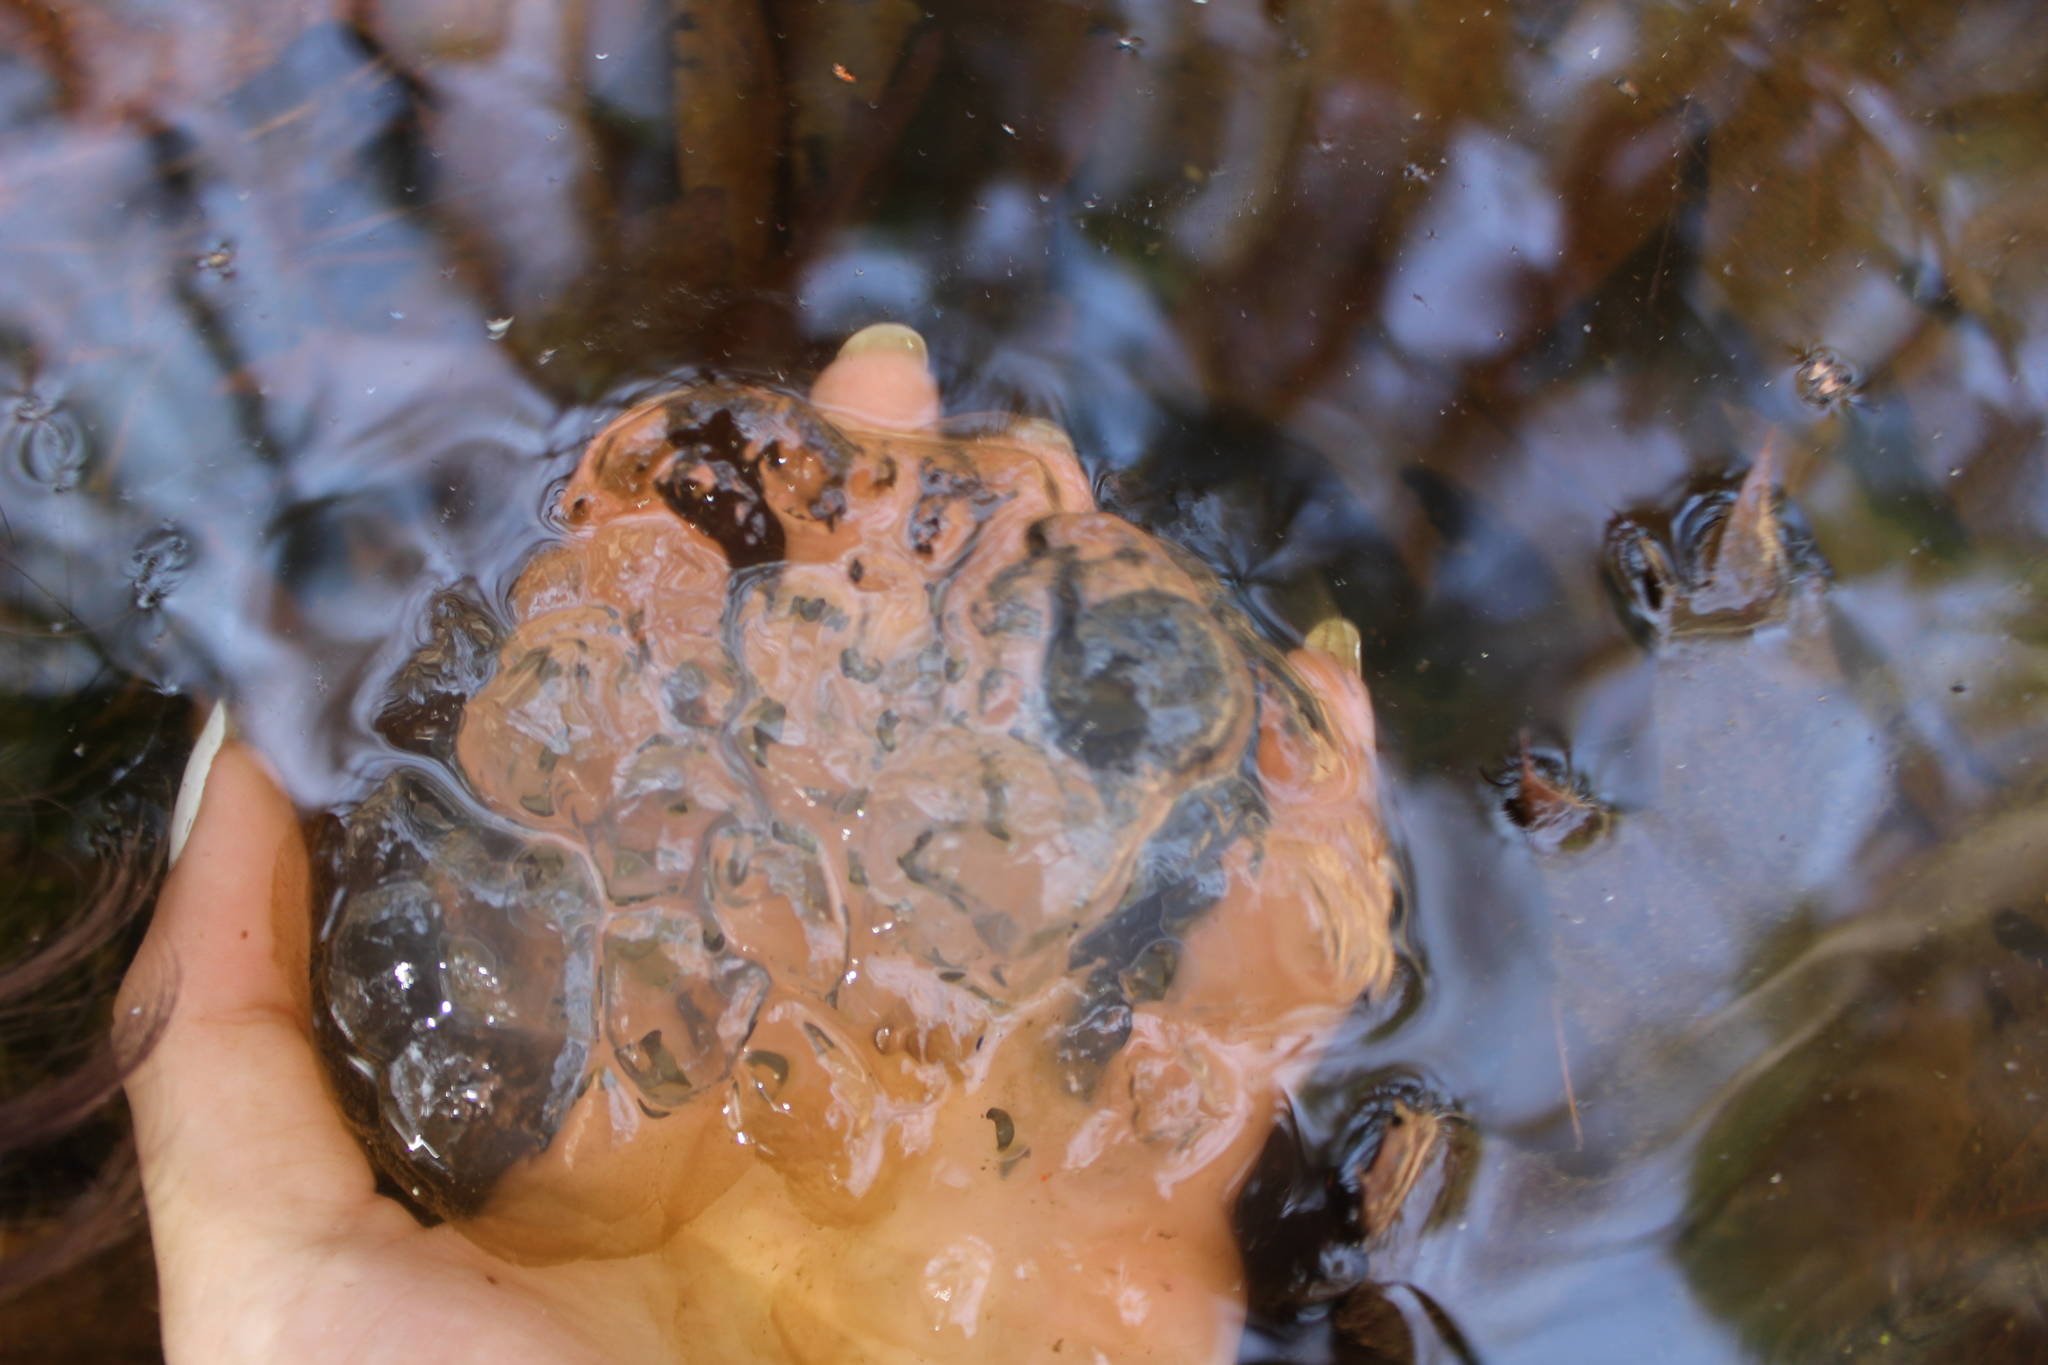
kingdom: Animalia
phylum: Chordata
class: Amphibia
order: Caudata
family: Ambystomatidae
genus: Ambystoma
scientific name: Ambystoma maculatum
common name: Spotted salamander
